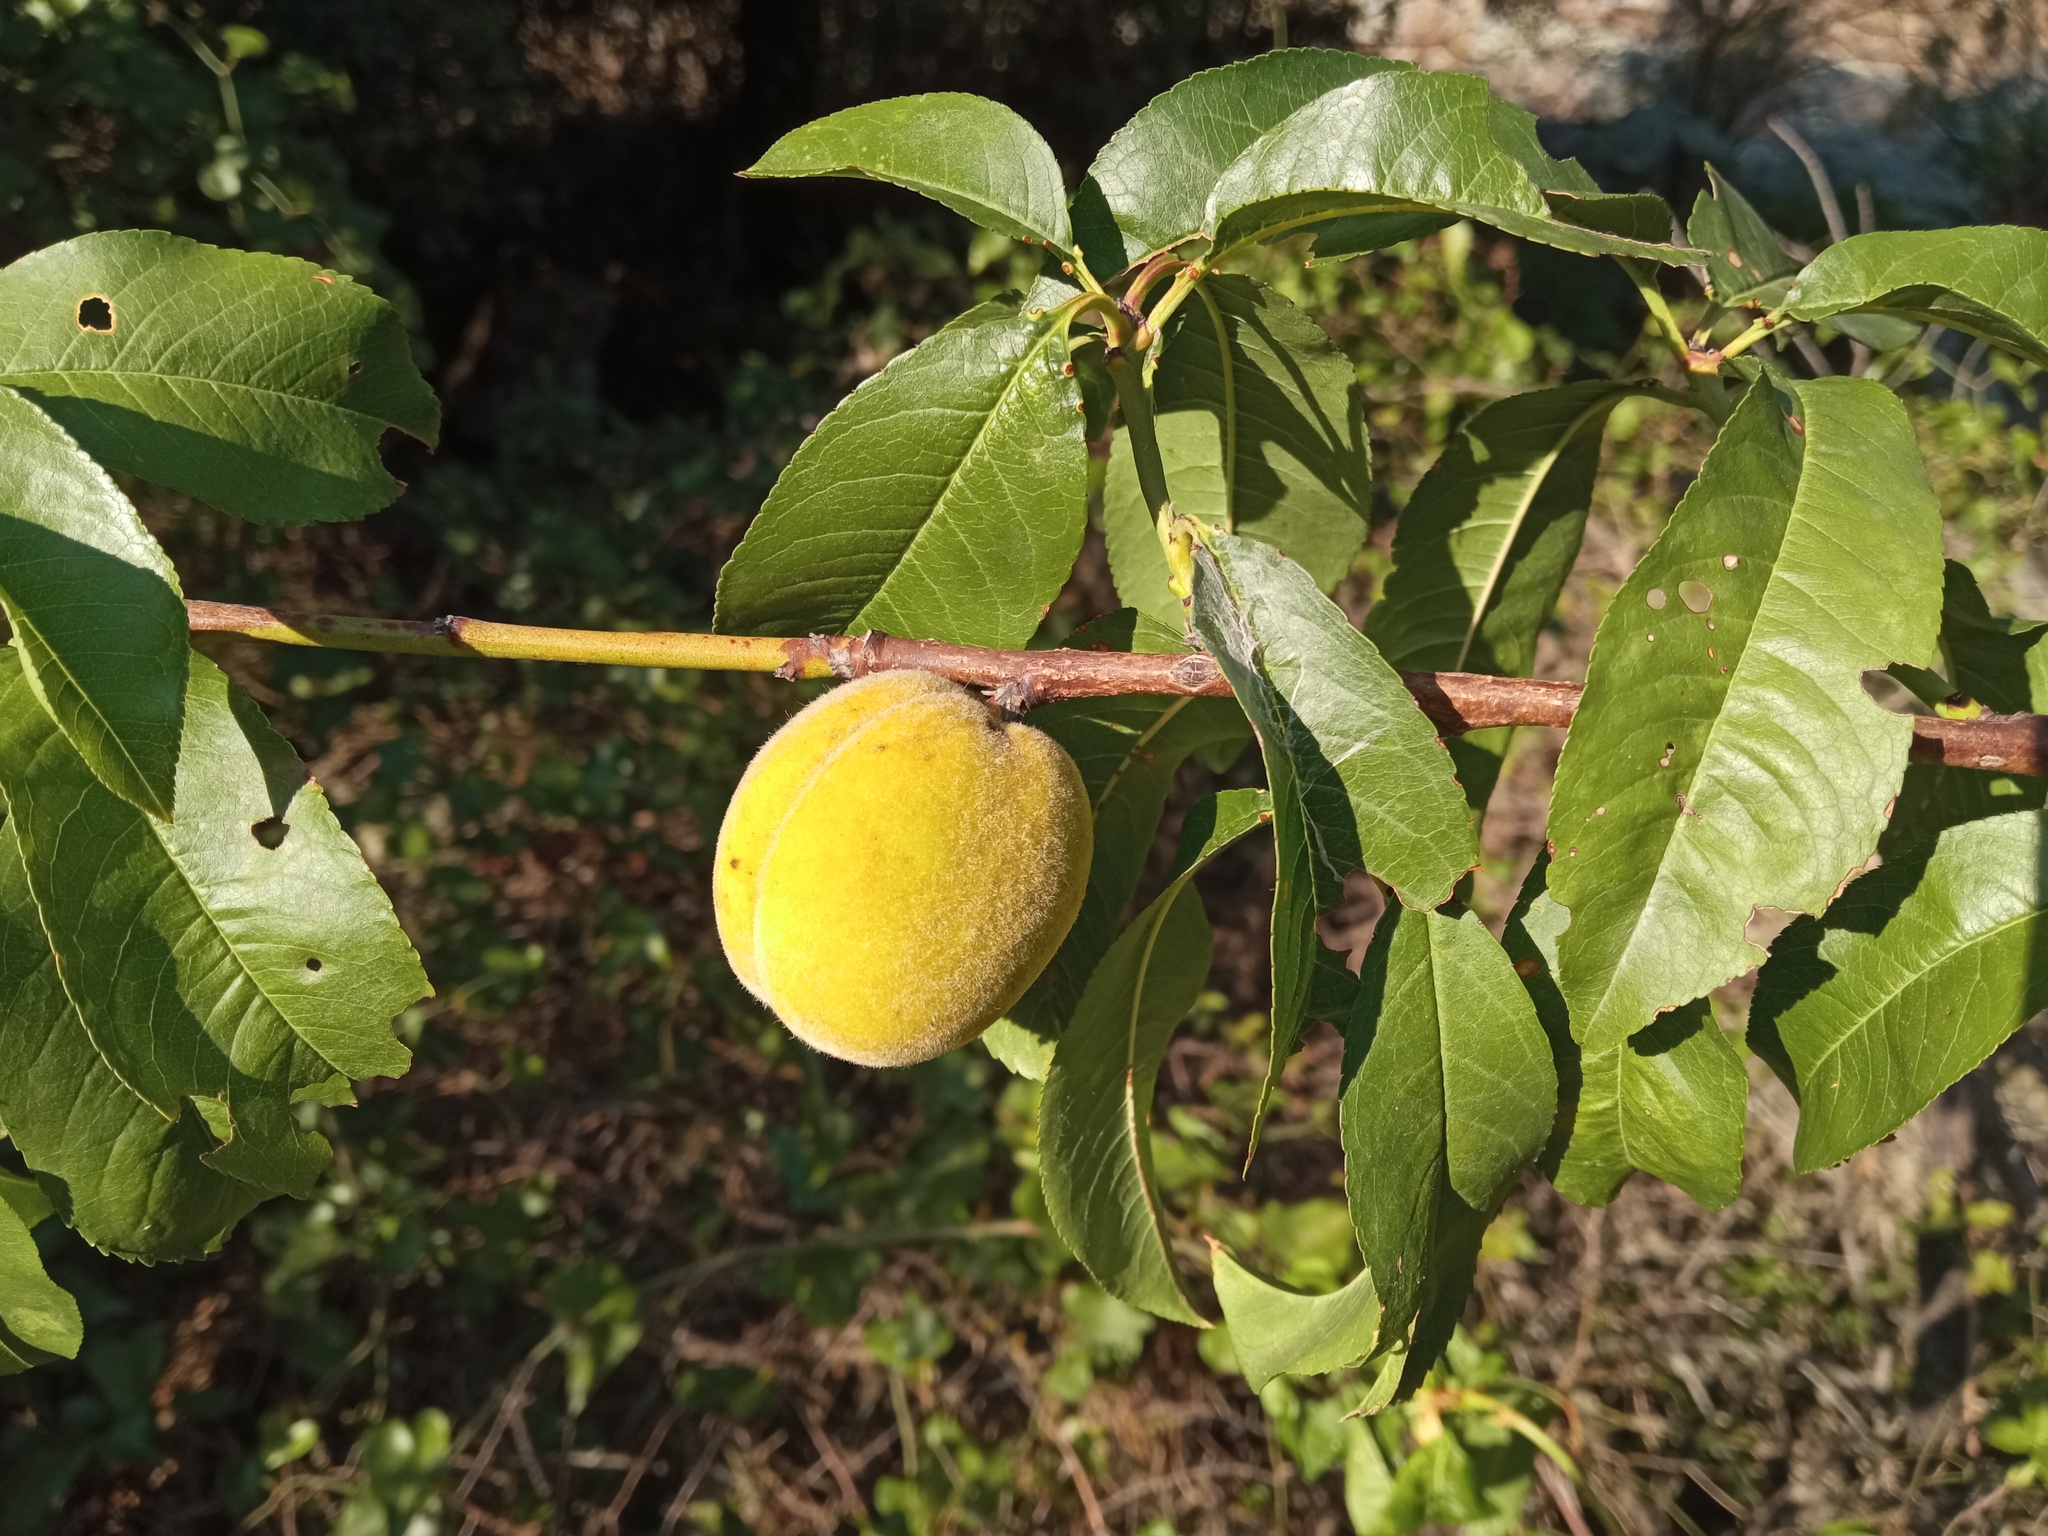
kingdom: Plantae
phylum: Tracheophyta
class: Magnoliopsida
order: Rosales
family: Rosaceae
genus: Prunus
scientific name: Prunus persica
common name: Peach
